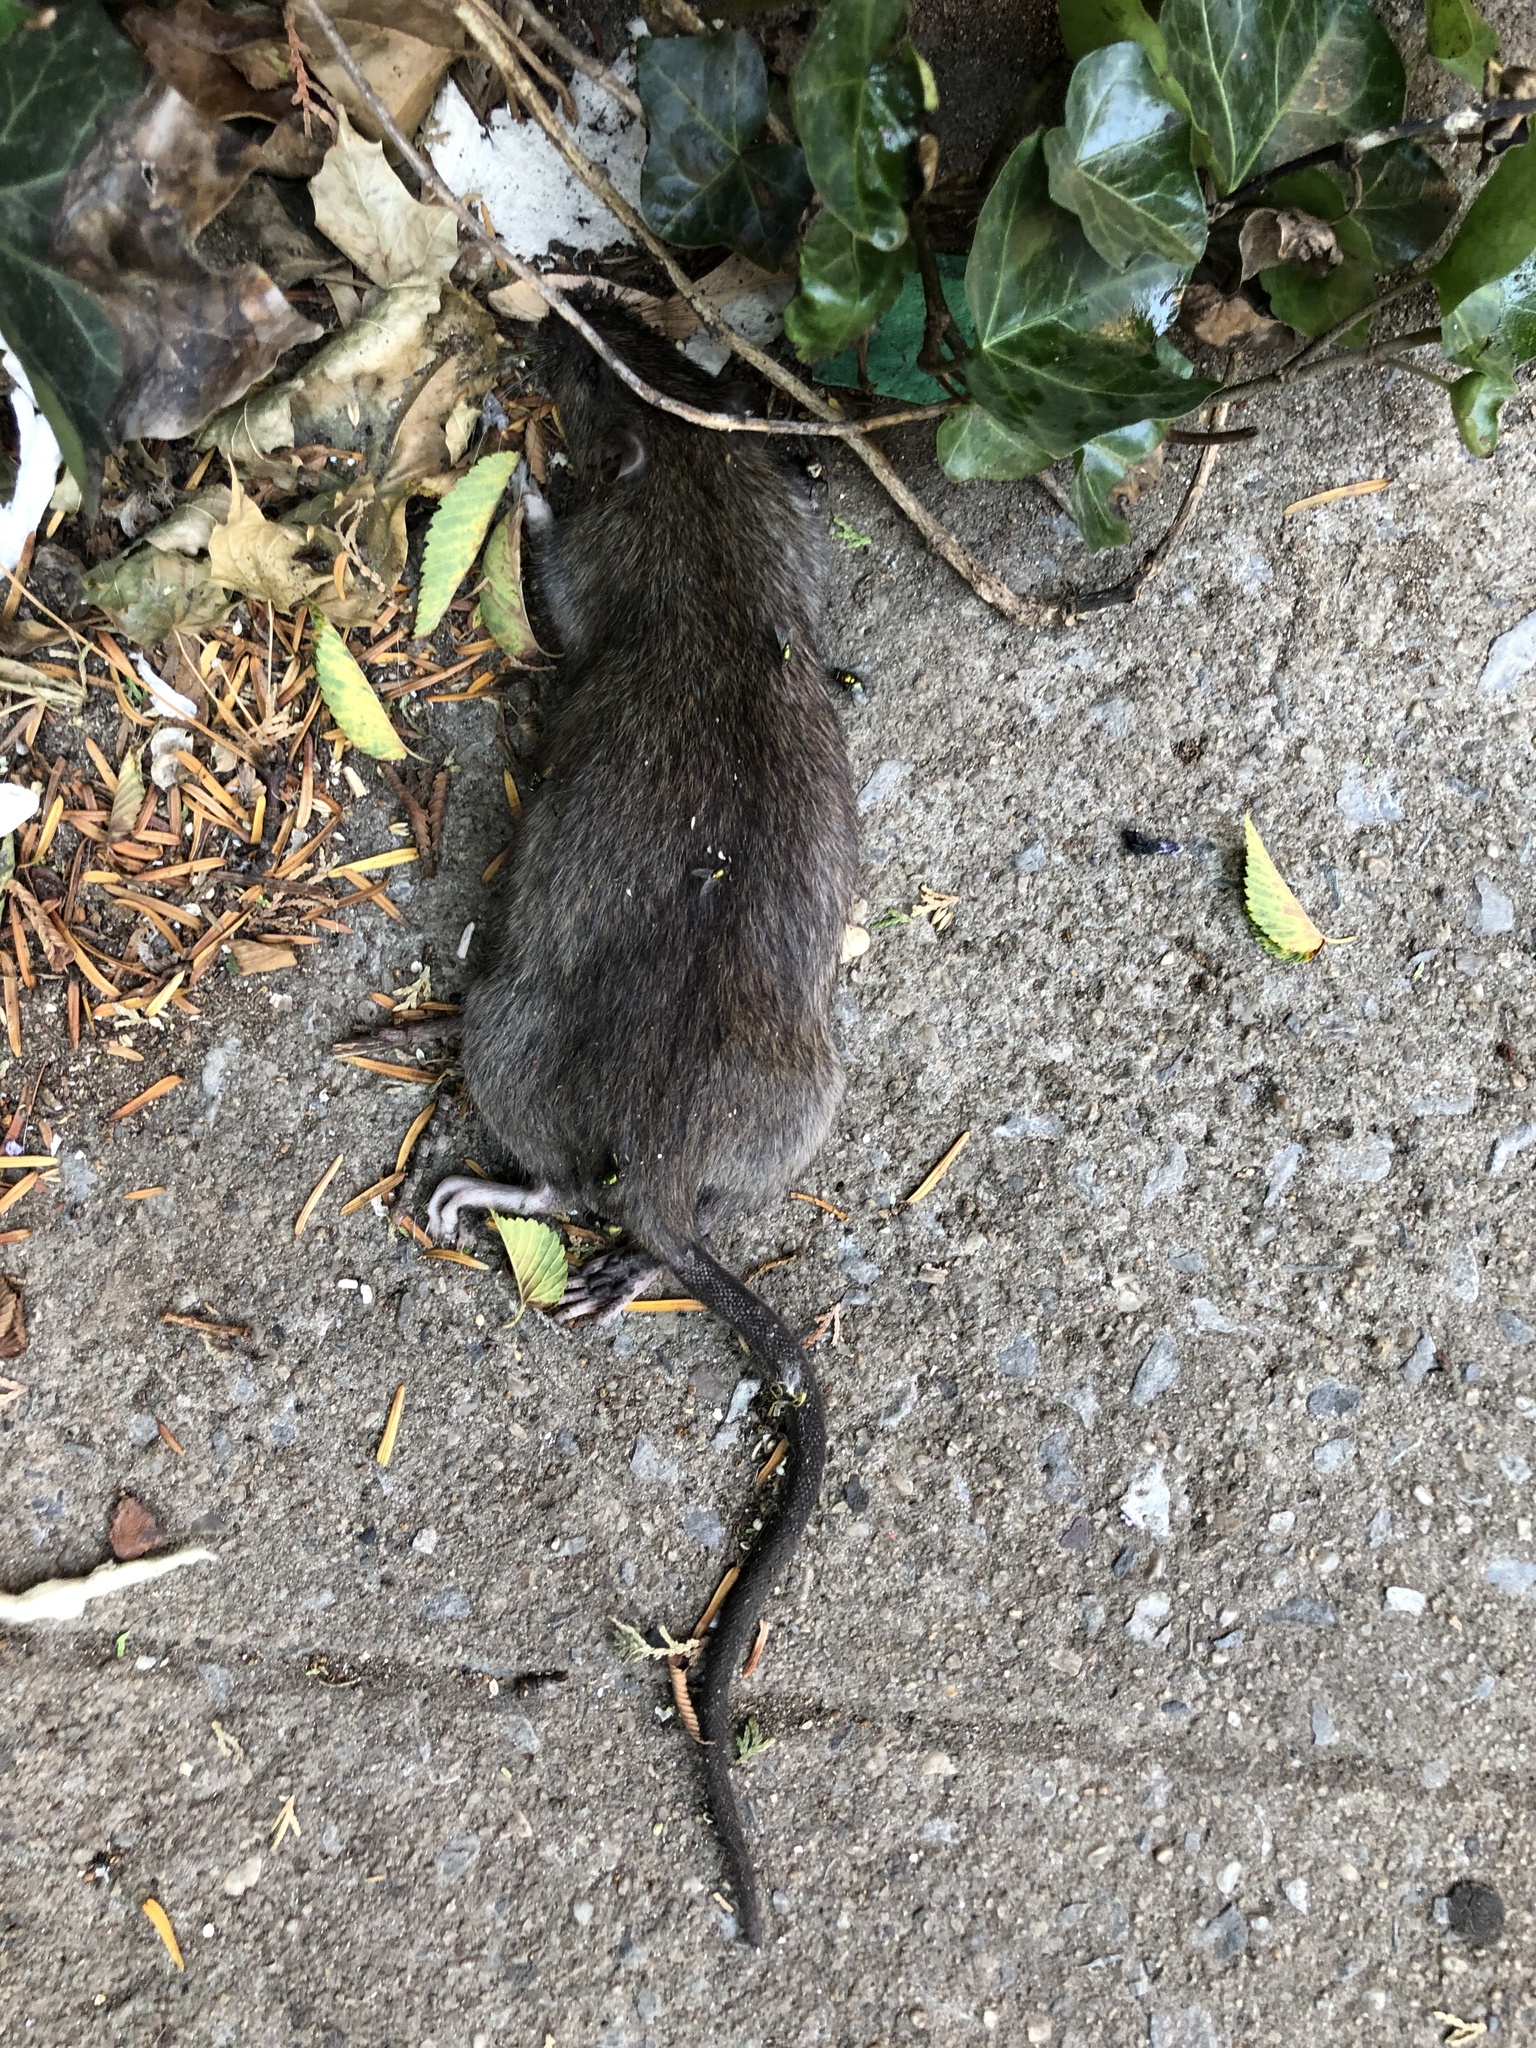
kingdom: Animalia
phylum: Chordata
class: Mammalia
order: Rodentia
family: Muridae
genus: Rattus
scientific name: Rattus norvegicus
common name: Brown rat
